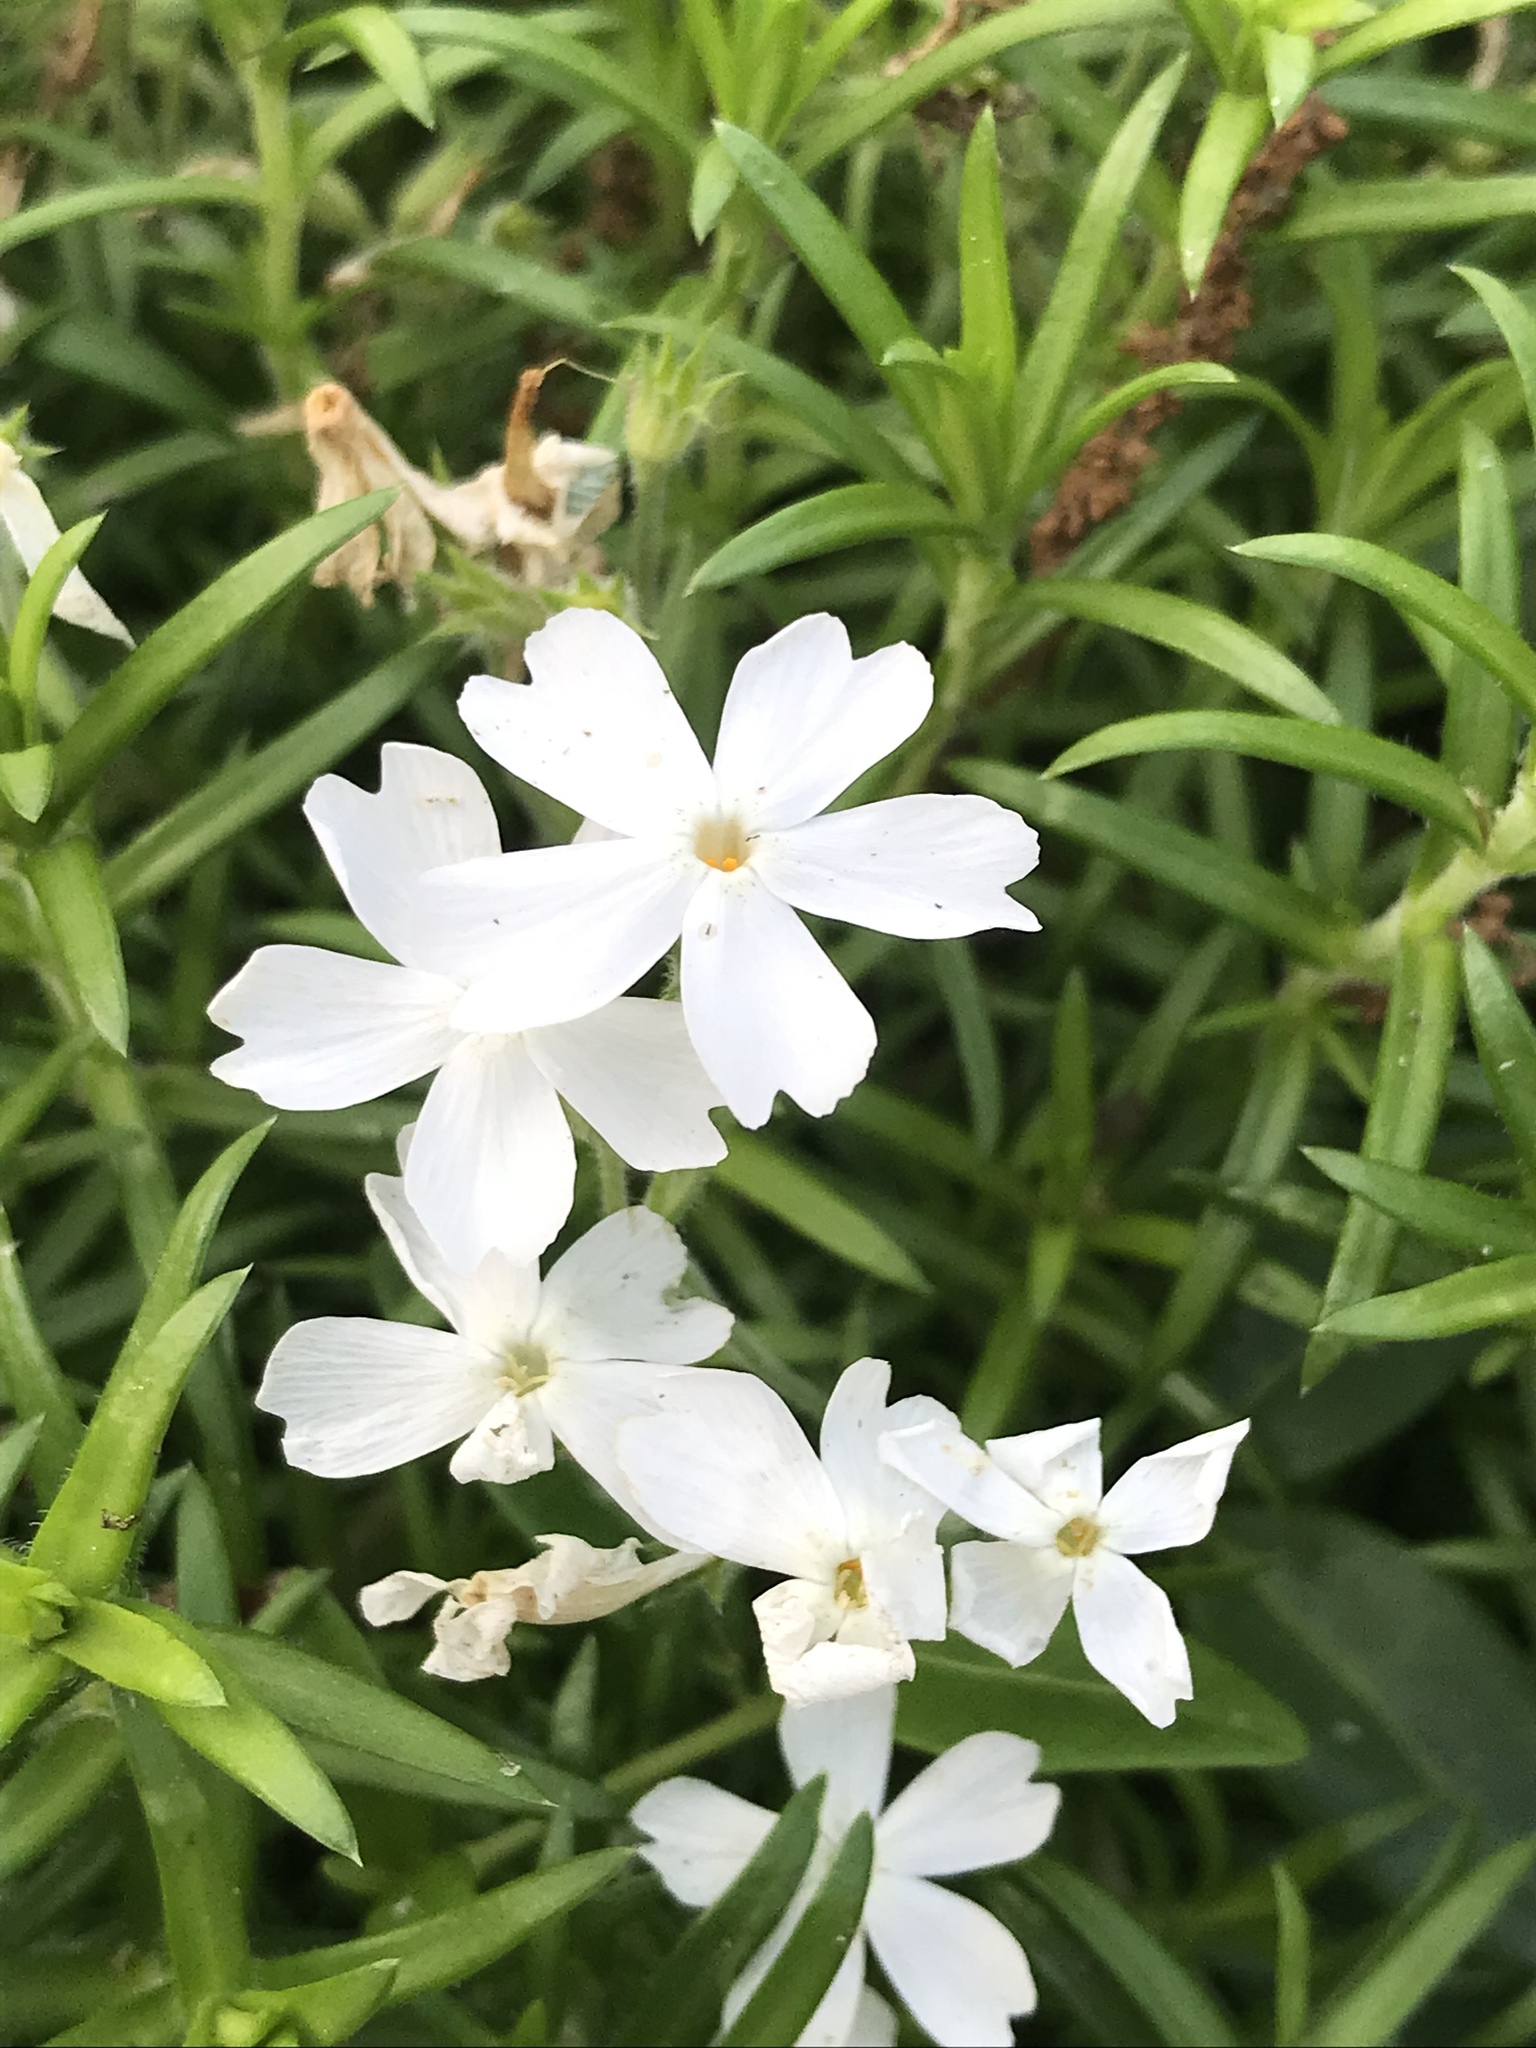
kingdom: Plantae
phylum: Tracheophyta
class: Magnoliopsida
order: Ericales
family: Polemoniaceae
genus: Phlox
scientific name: Phlox subulata
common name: Moss phlox
